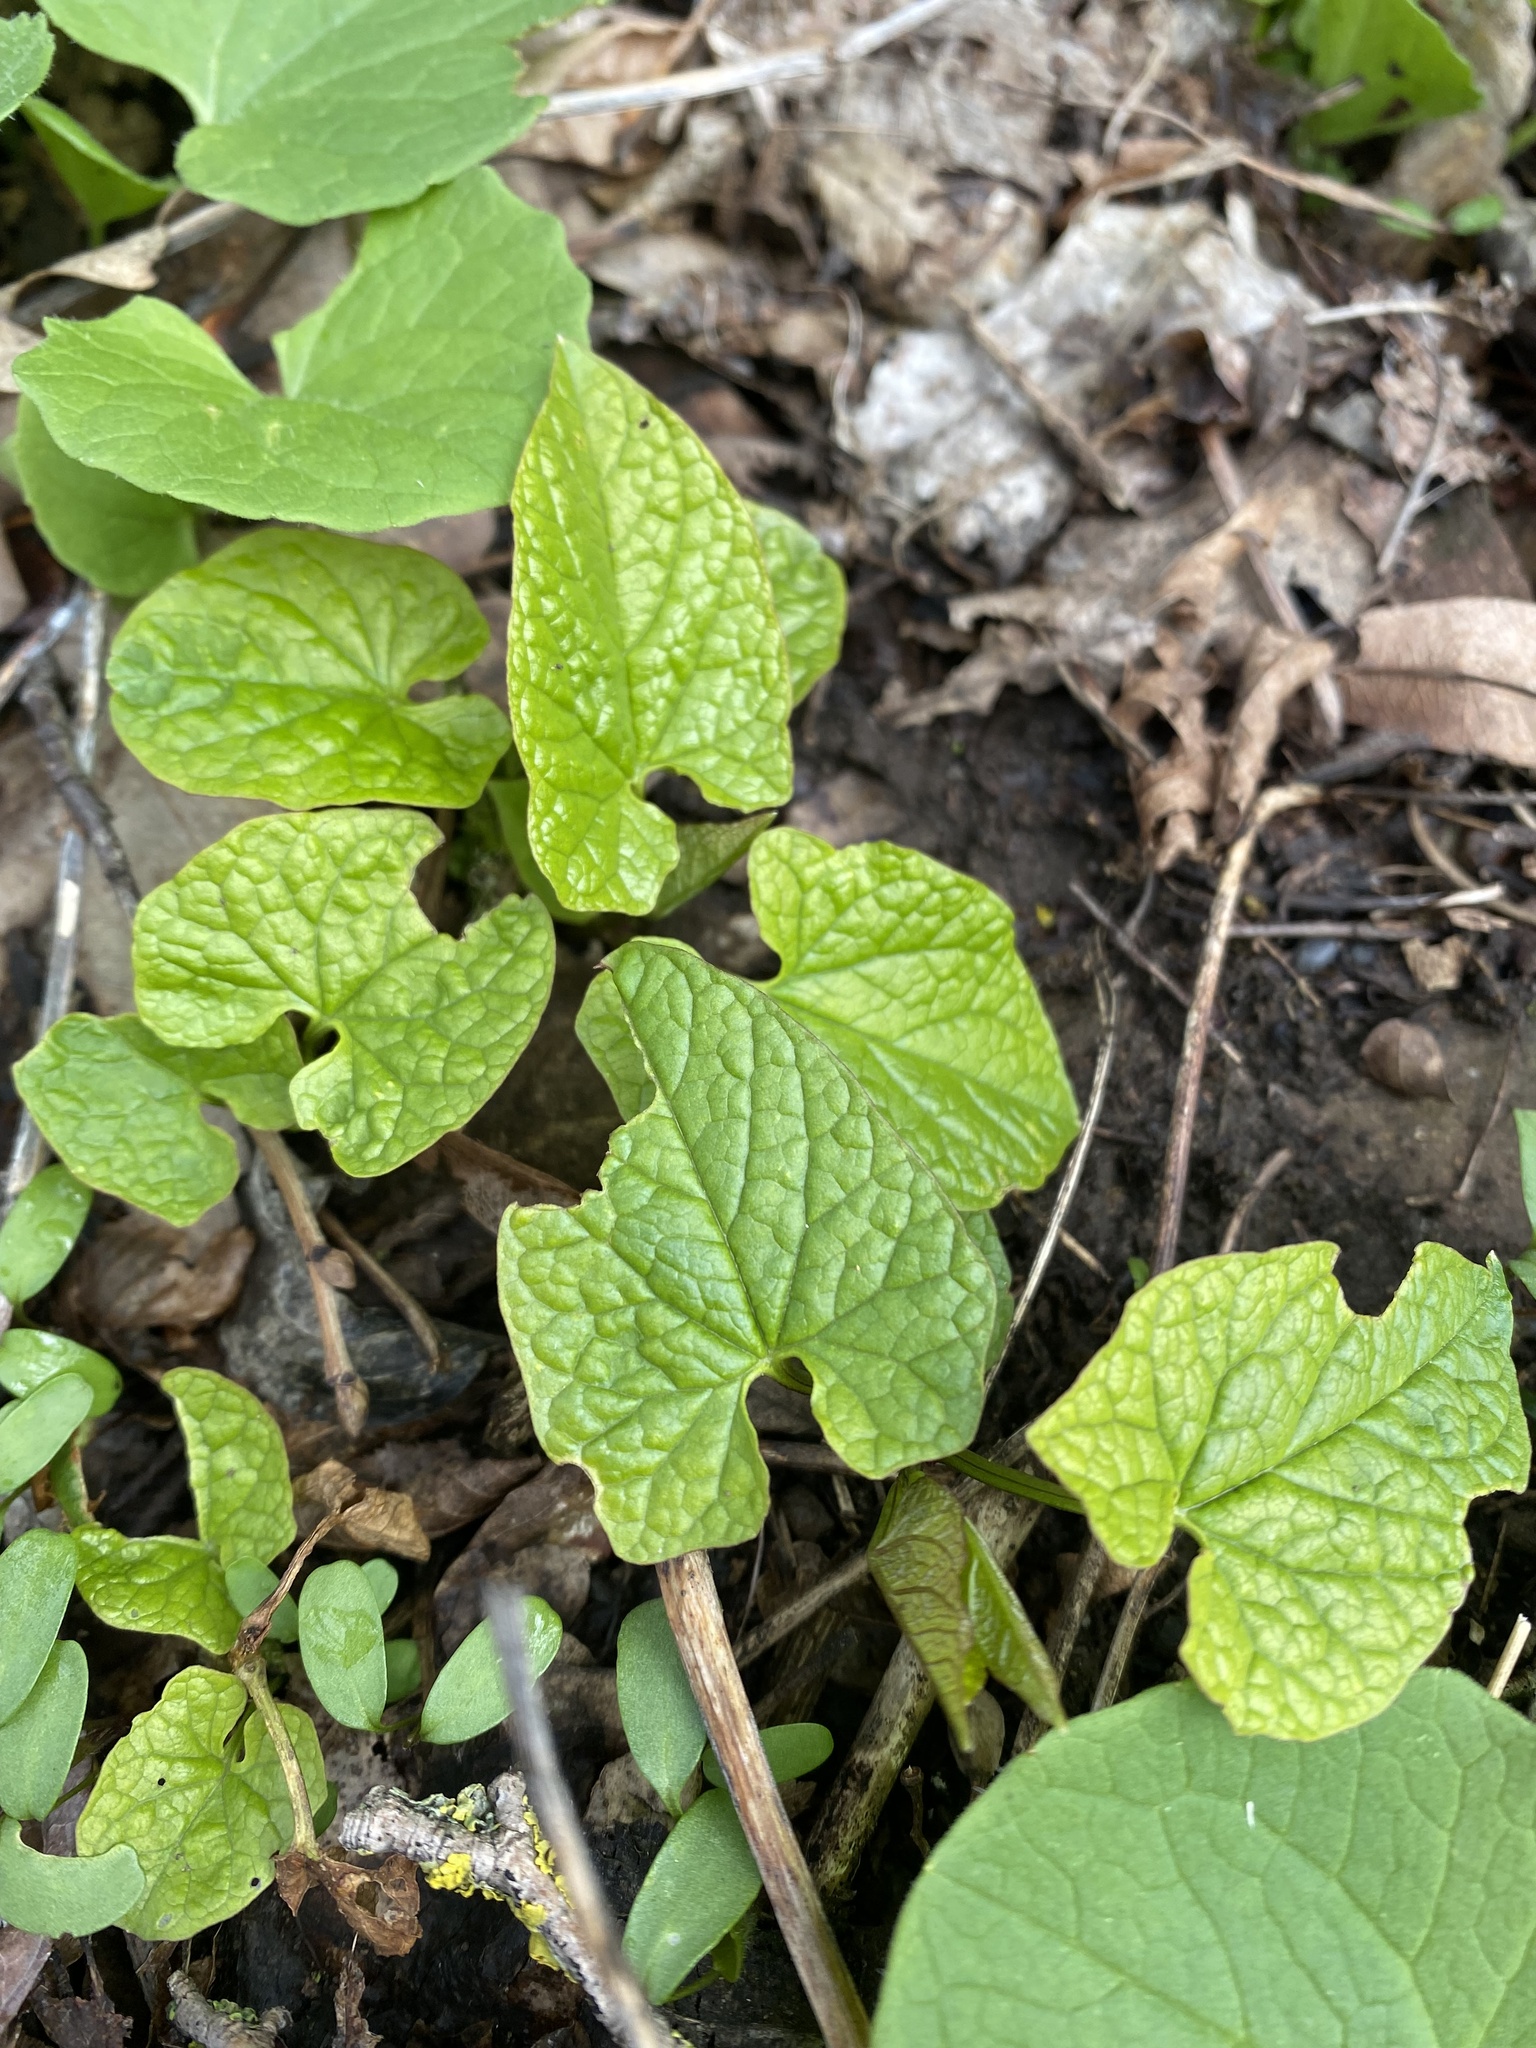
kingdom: Plantae
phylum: Tracheophyta
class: Magnoliopsida
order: Brassicales
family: Brassicaceae
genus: Alliaria
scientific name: Alliaria petiolata
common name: Garlic mustard
